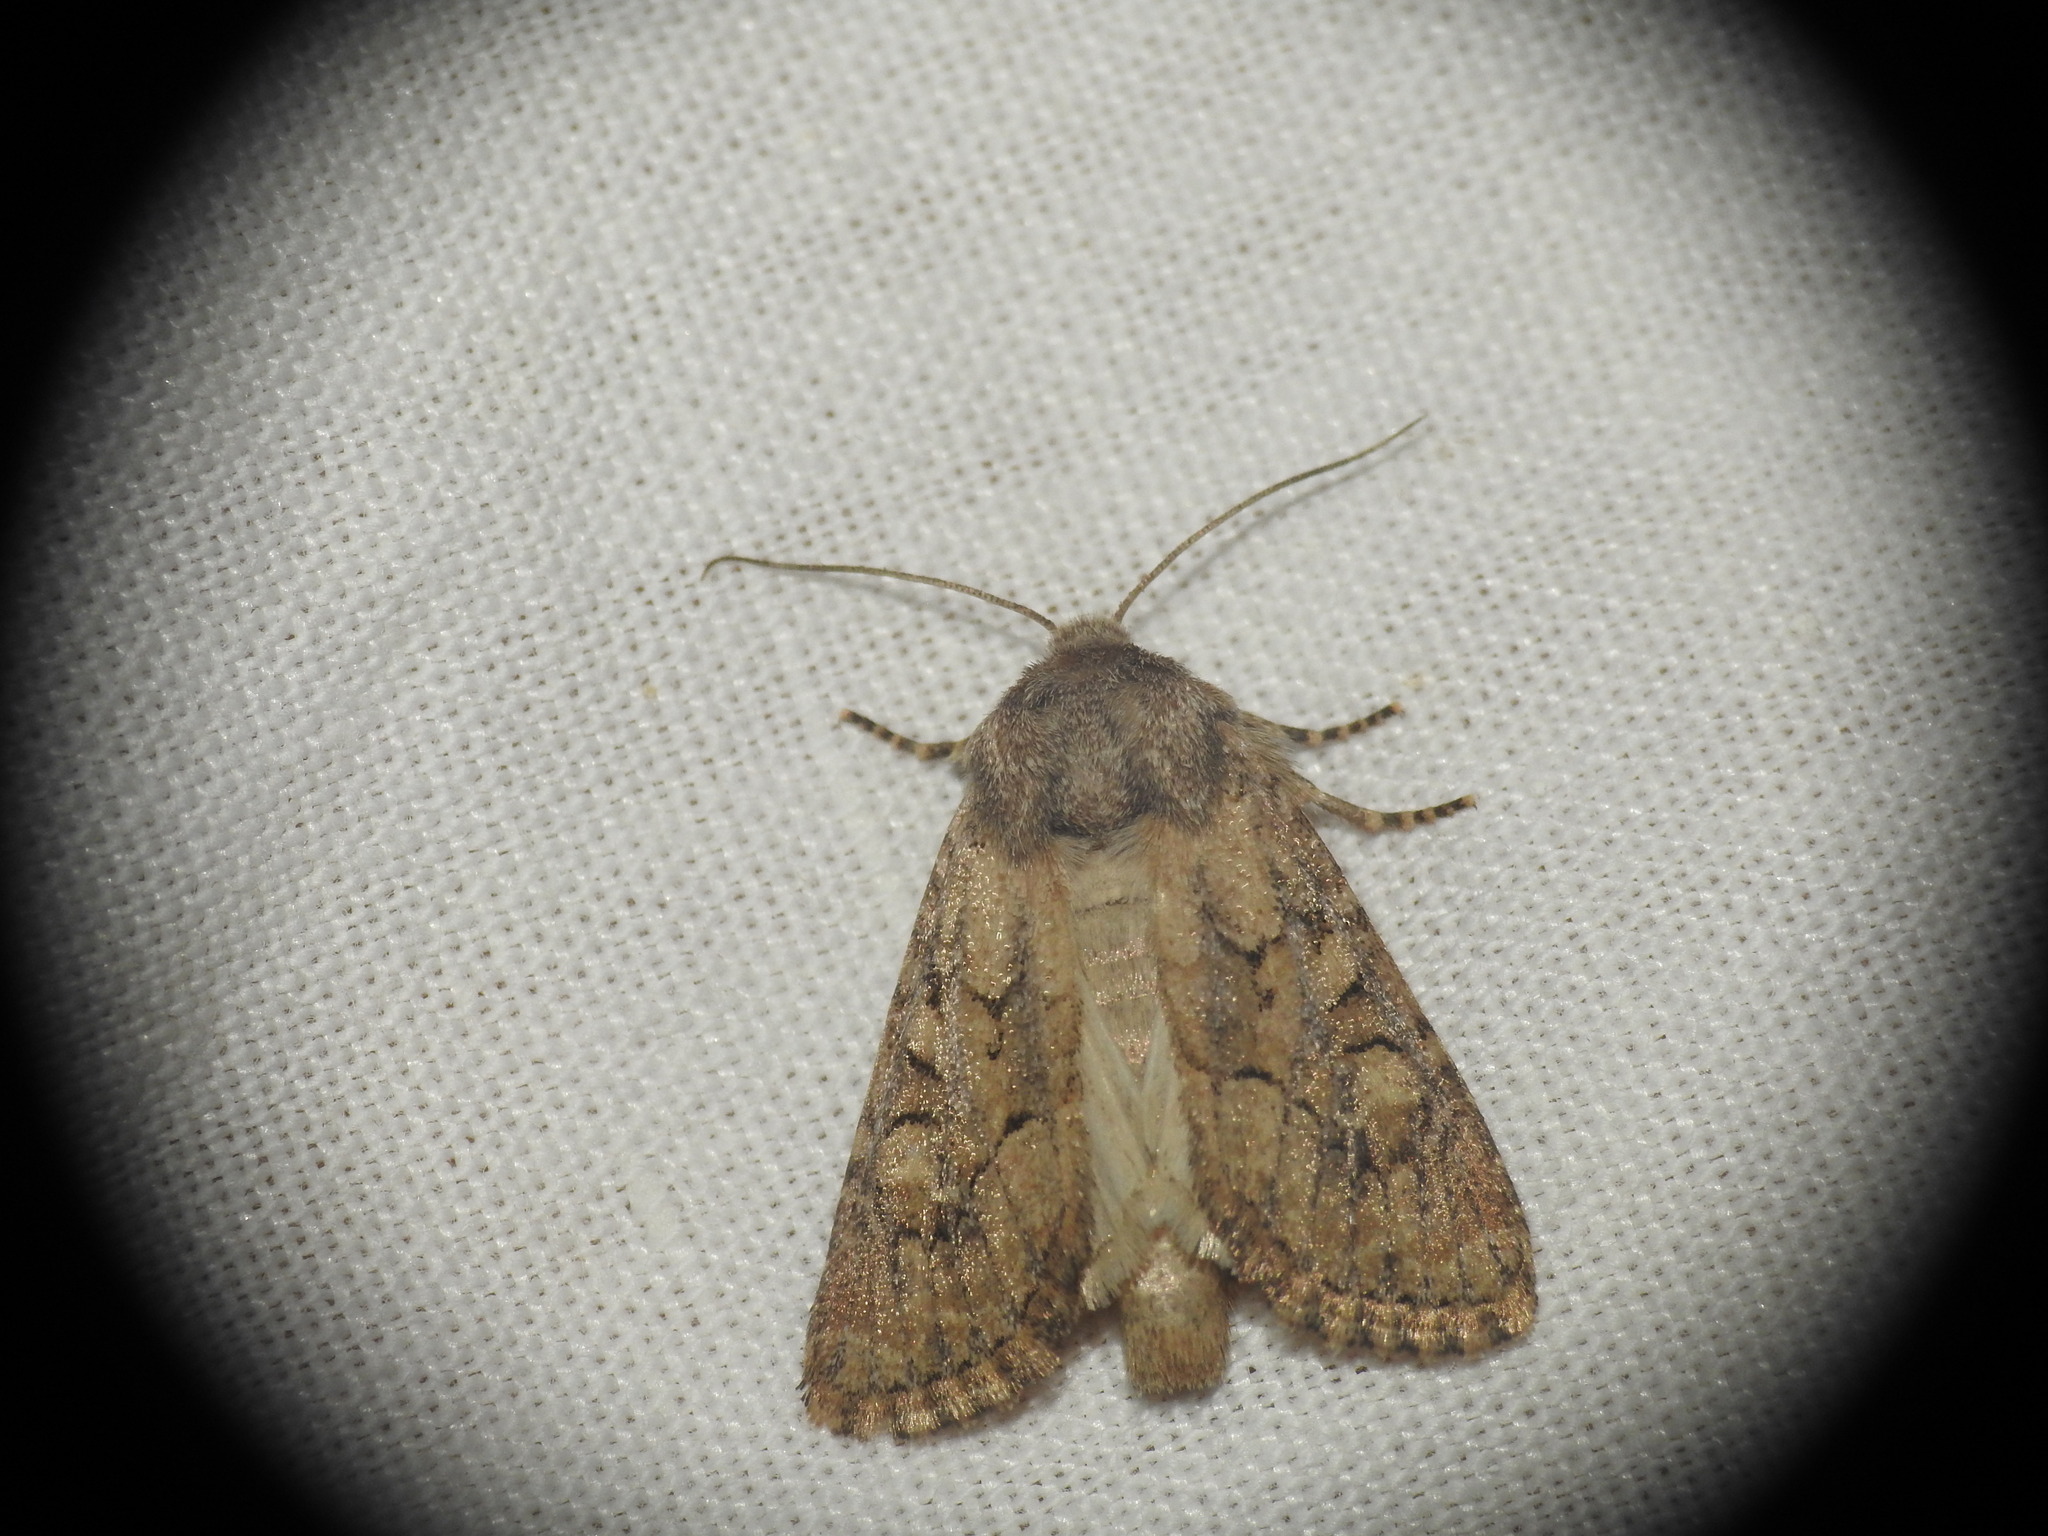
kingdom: Animalia
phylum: Arthropoda
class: Insecta
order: Lepidoptera
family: Noctuidae
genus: Luperina
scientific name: Luperina testacea
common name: Flounced rustic
